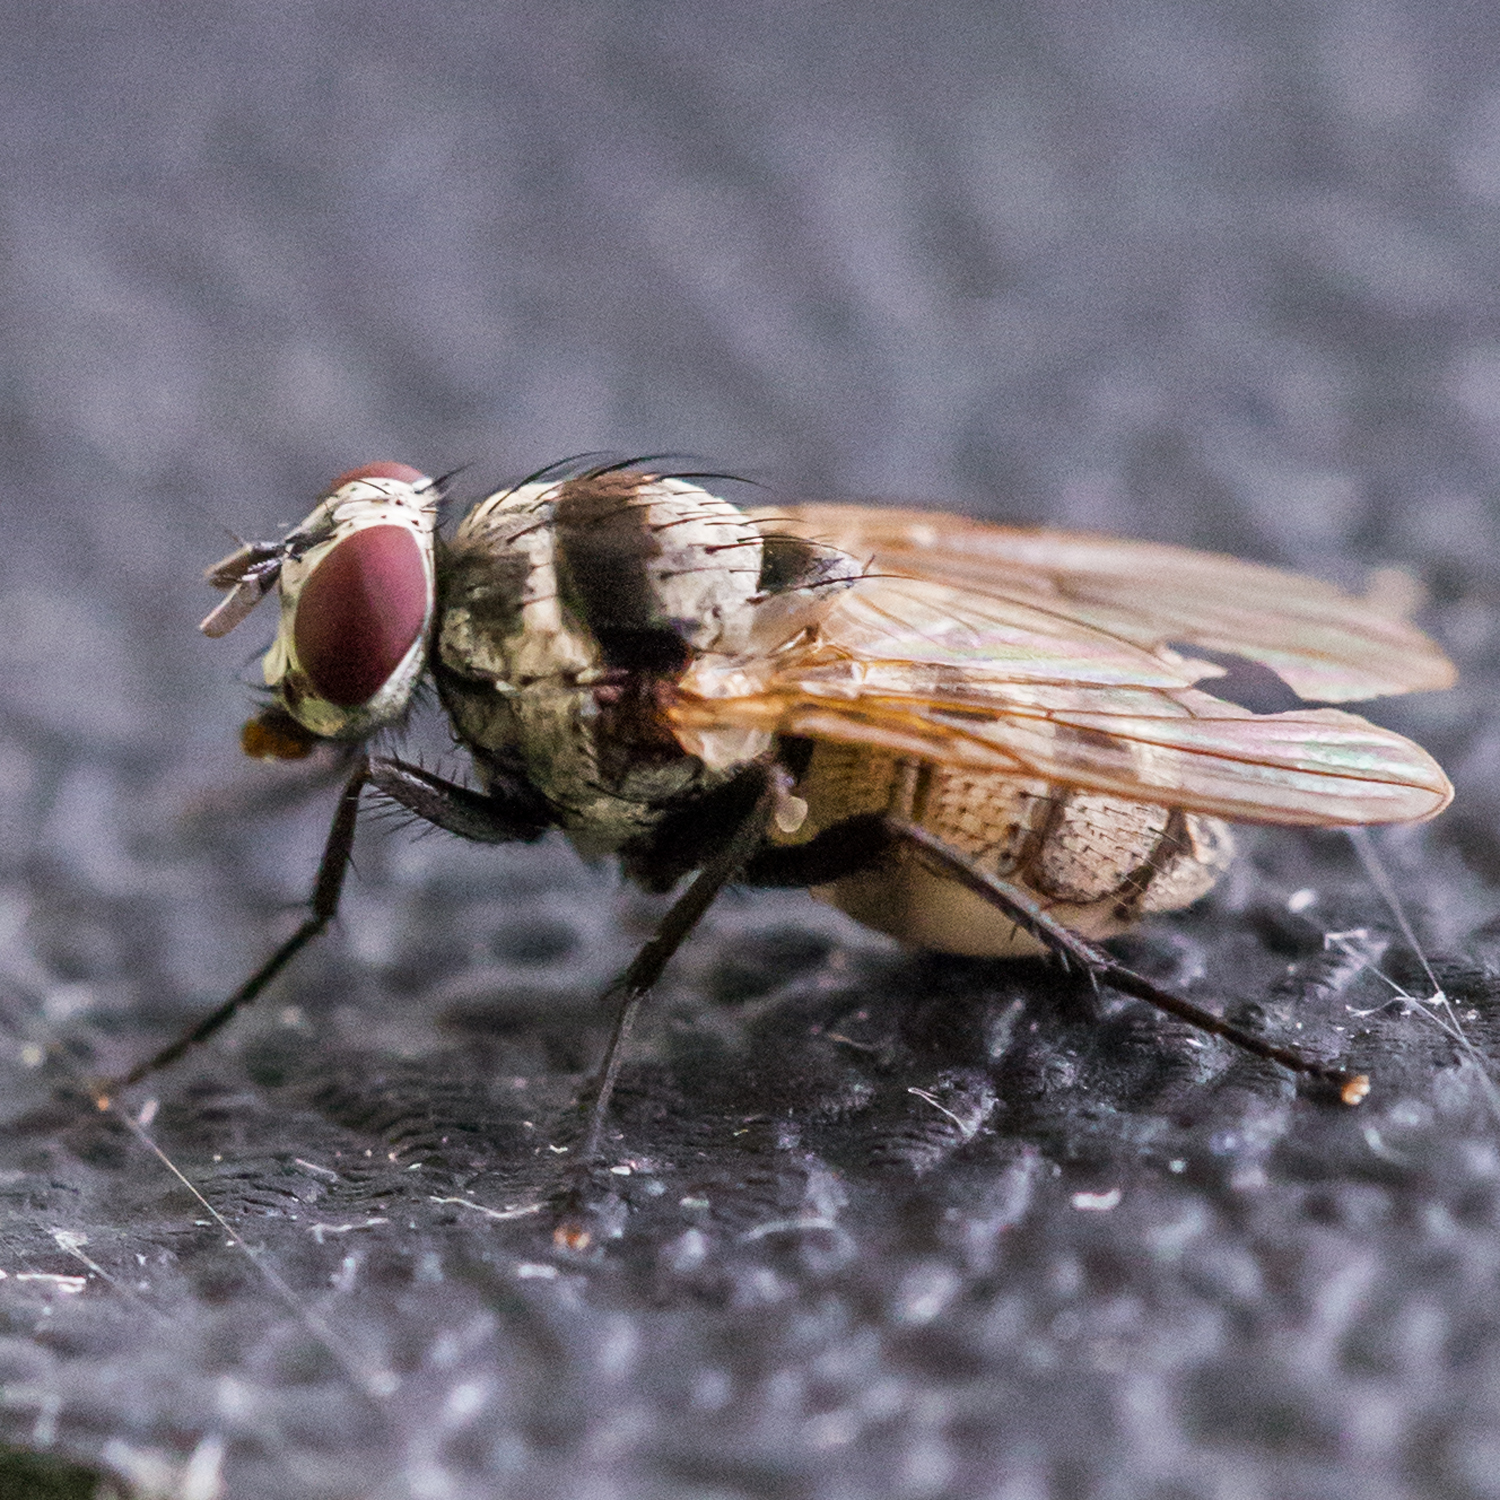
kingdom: Animalia
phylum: Arthropoda
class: Insecta
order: Diptera
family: Anthomyiidae
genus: Anthomyia
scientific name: Anthomyia pluvialis
